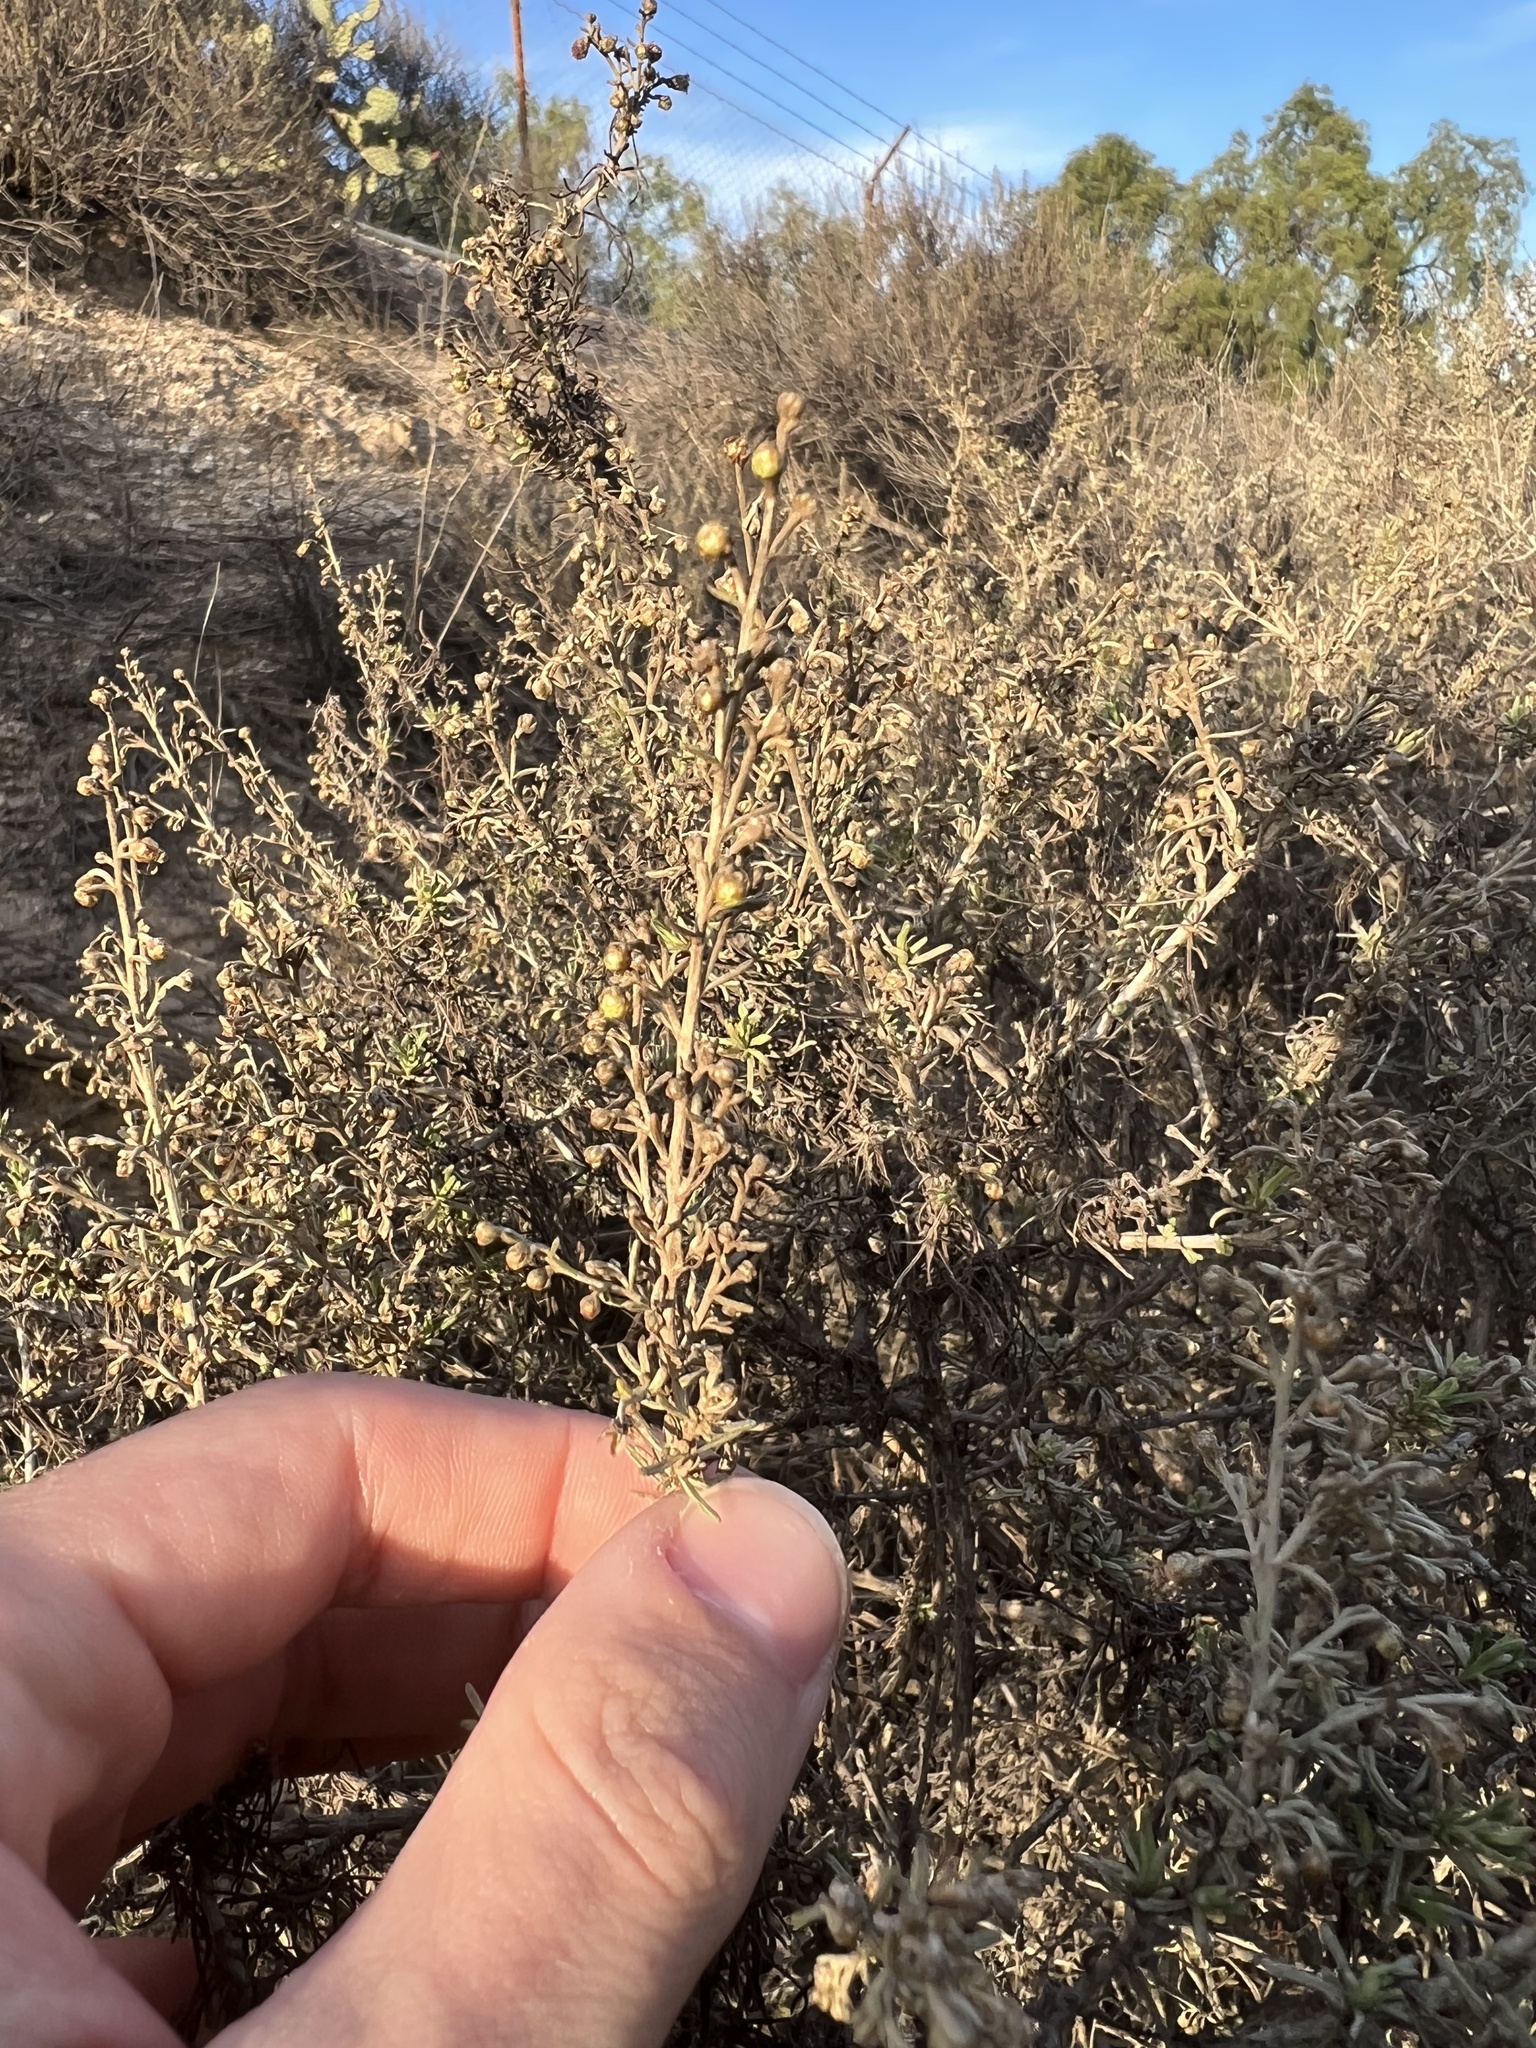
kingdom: Plantae
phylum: Tracheophyta
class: Magnoliopsida
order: Asterales
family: Asteraceae
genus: Artemisia
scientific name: Artemisia californica
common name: California sagebrush
